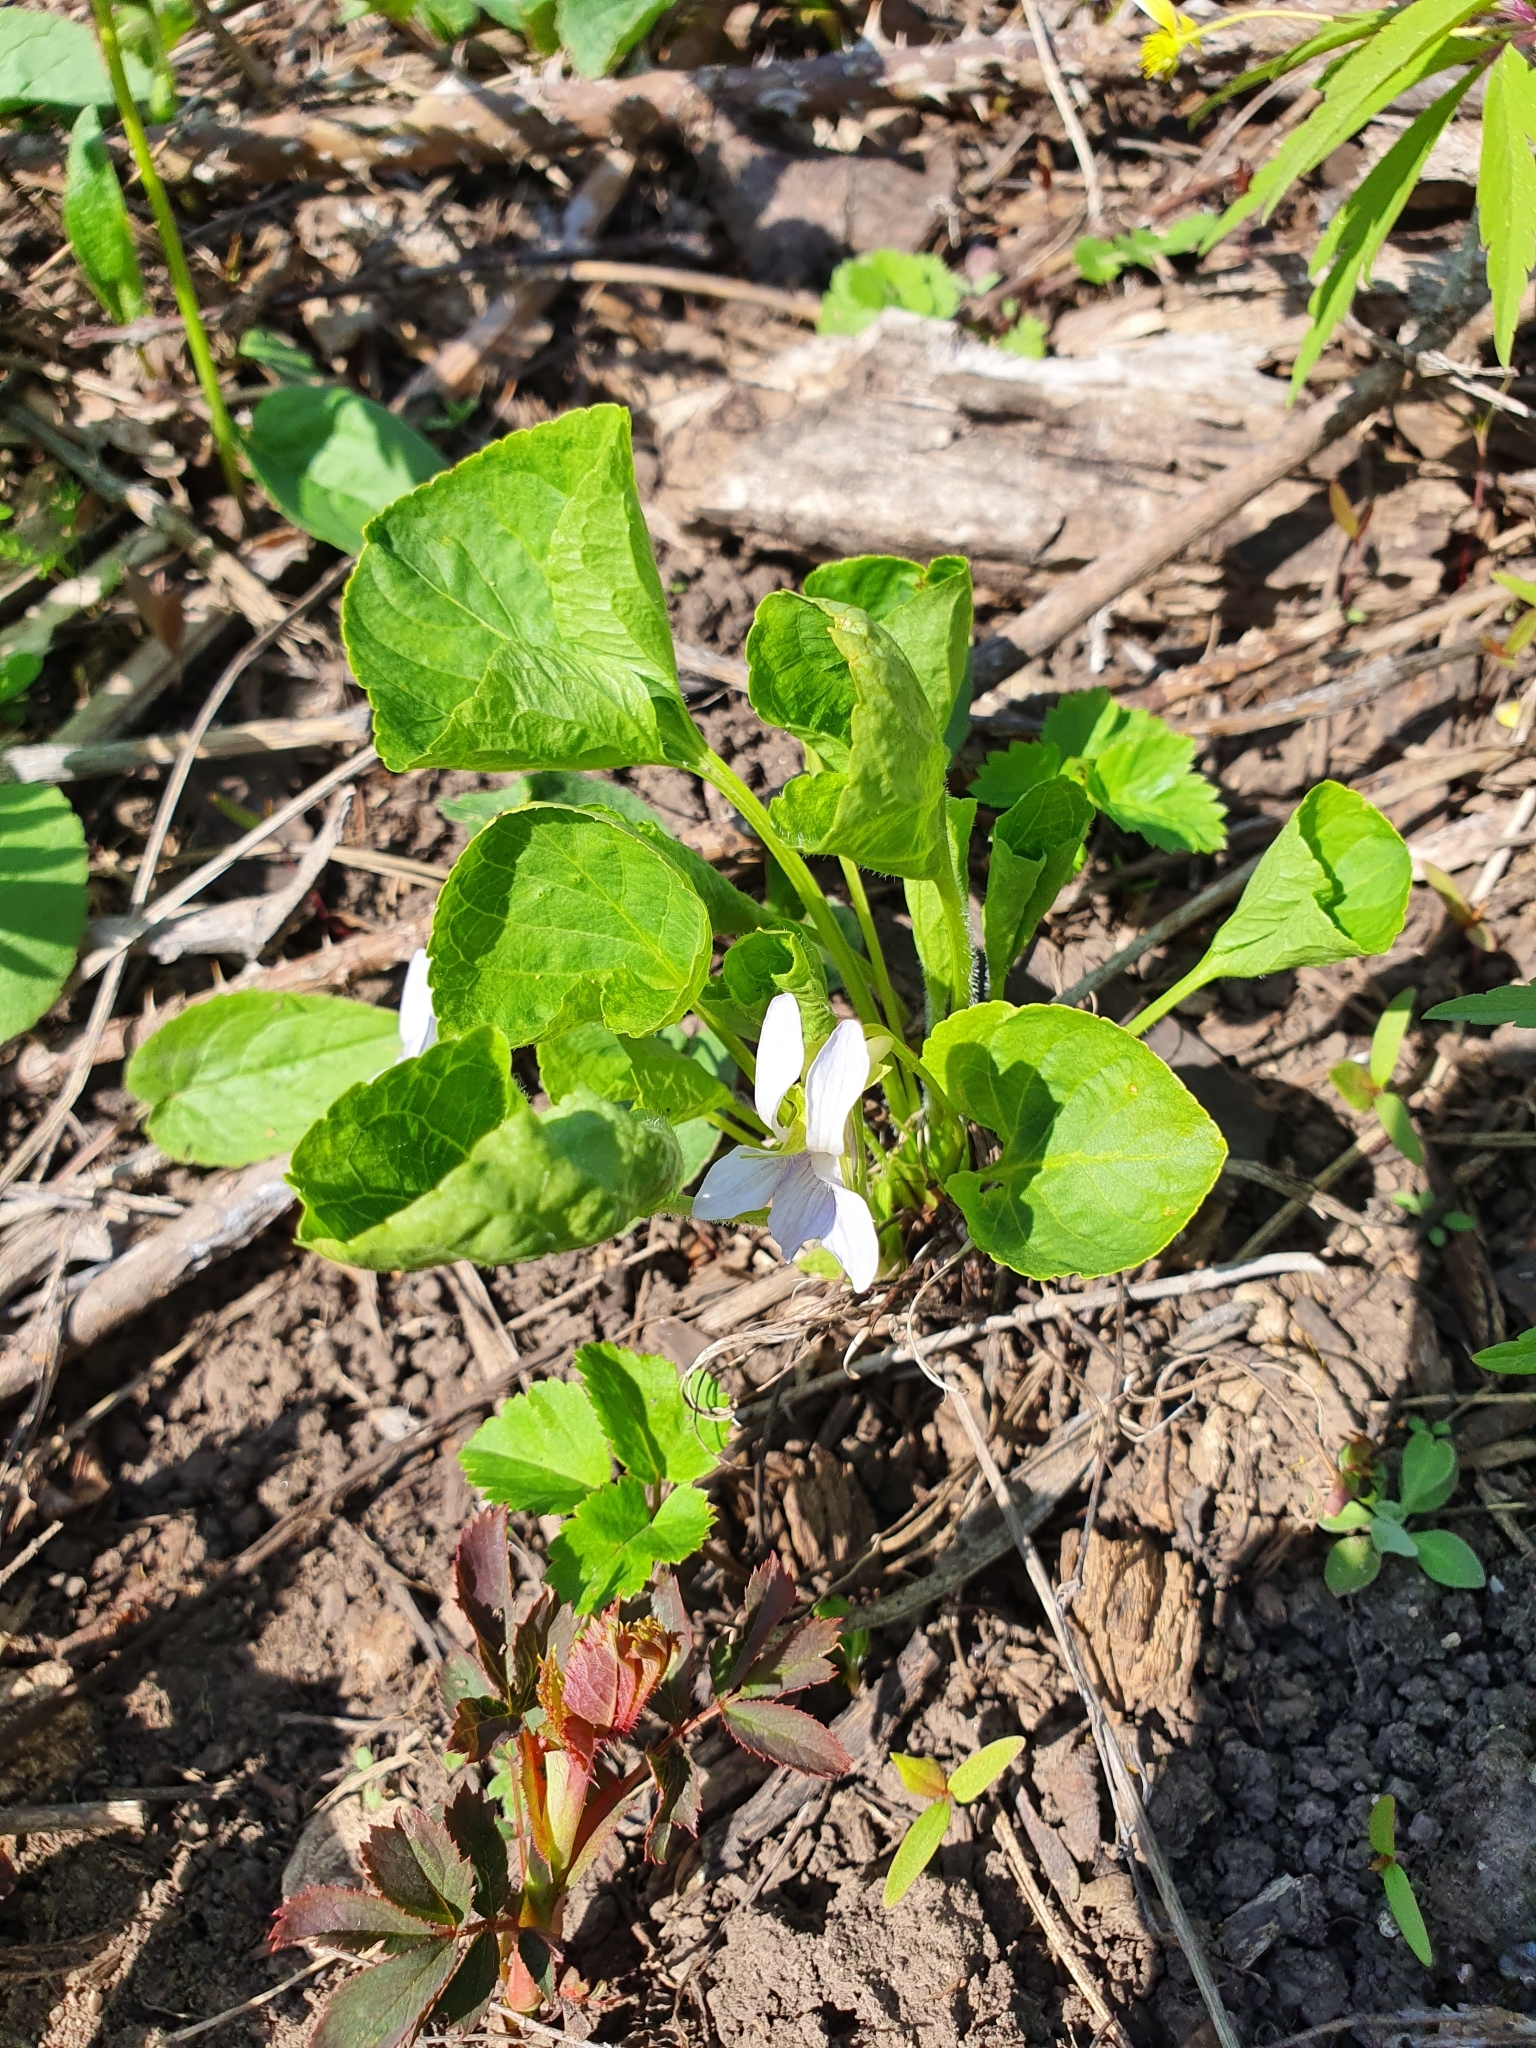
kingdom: Plantae
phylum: Tracheophyta
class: Magnoliopsida
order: Malpighiales
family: Violaceae
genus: Viola
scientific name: Viola mirabilis
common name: Wonder violet
